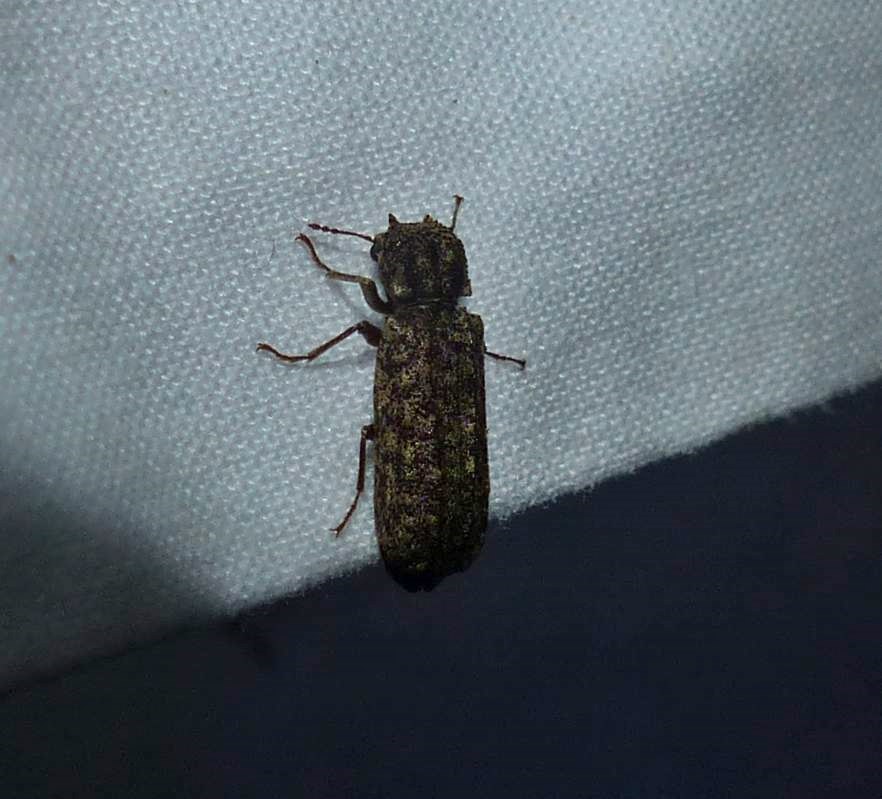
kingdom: Animalia
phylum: Arthropoda
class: Insecta
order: Coleoptera
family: Bostrichidae
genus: Lichenophanes
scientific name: Lichenophanes bicornis
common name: Two-horned powder-post beetle
